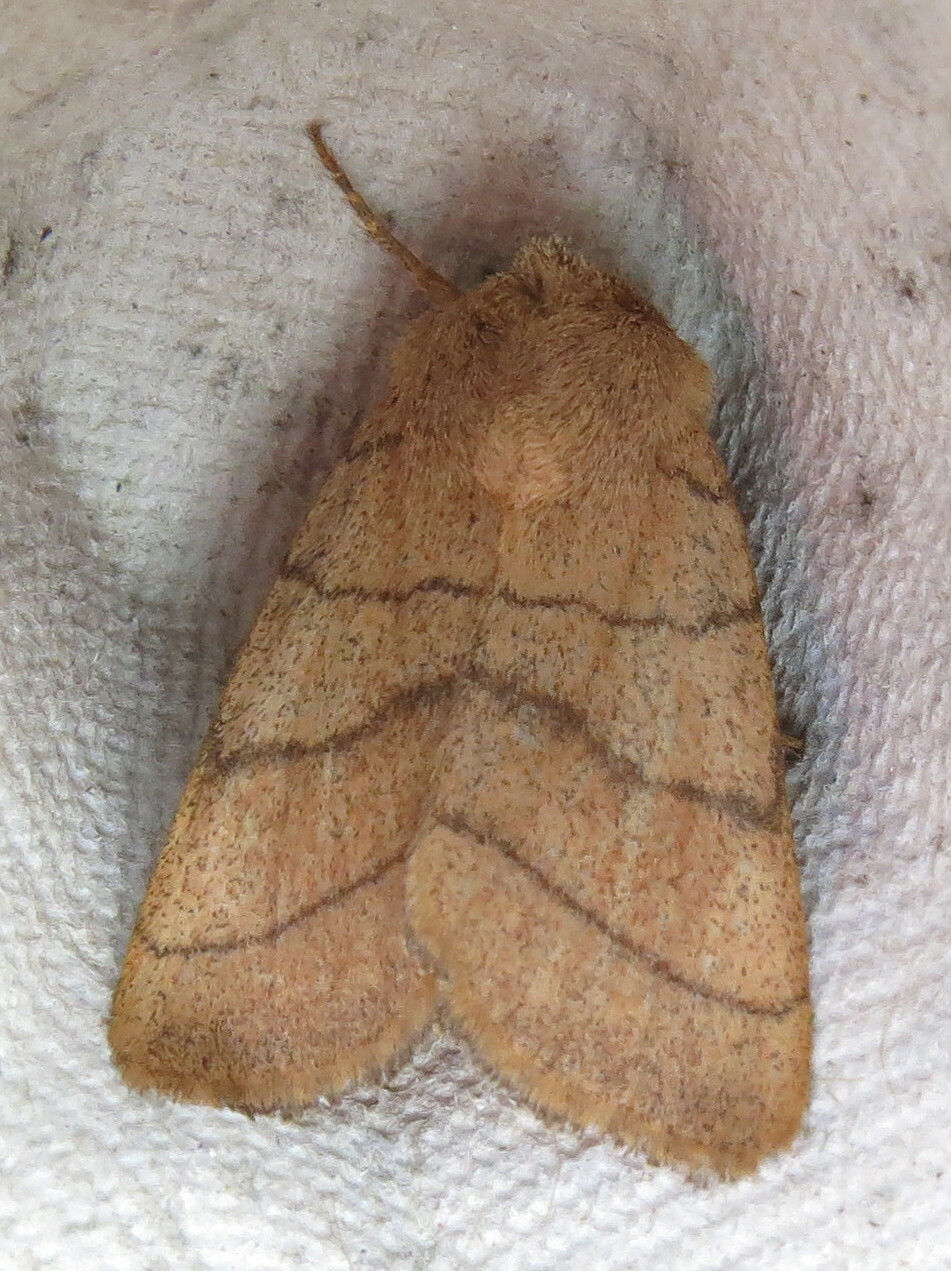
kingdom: Animalia
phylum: Arthropoda
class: Insecta
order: Lepidoptera
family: Noctuidae
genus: Charanyca
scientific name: Charanyca trigrammica
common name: Treble lines
